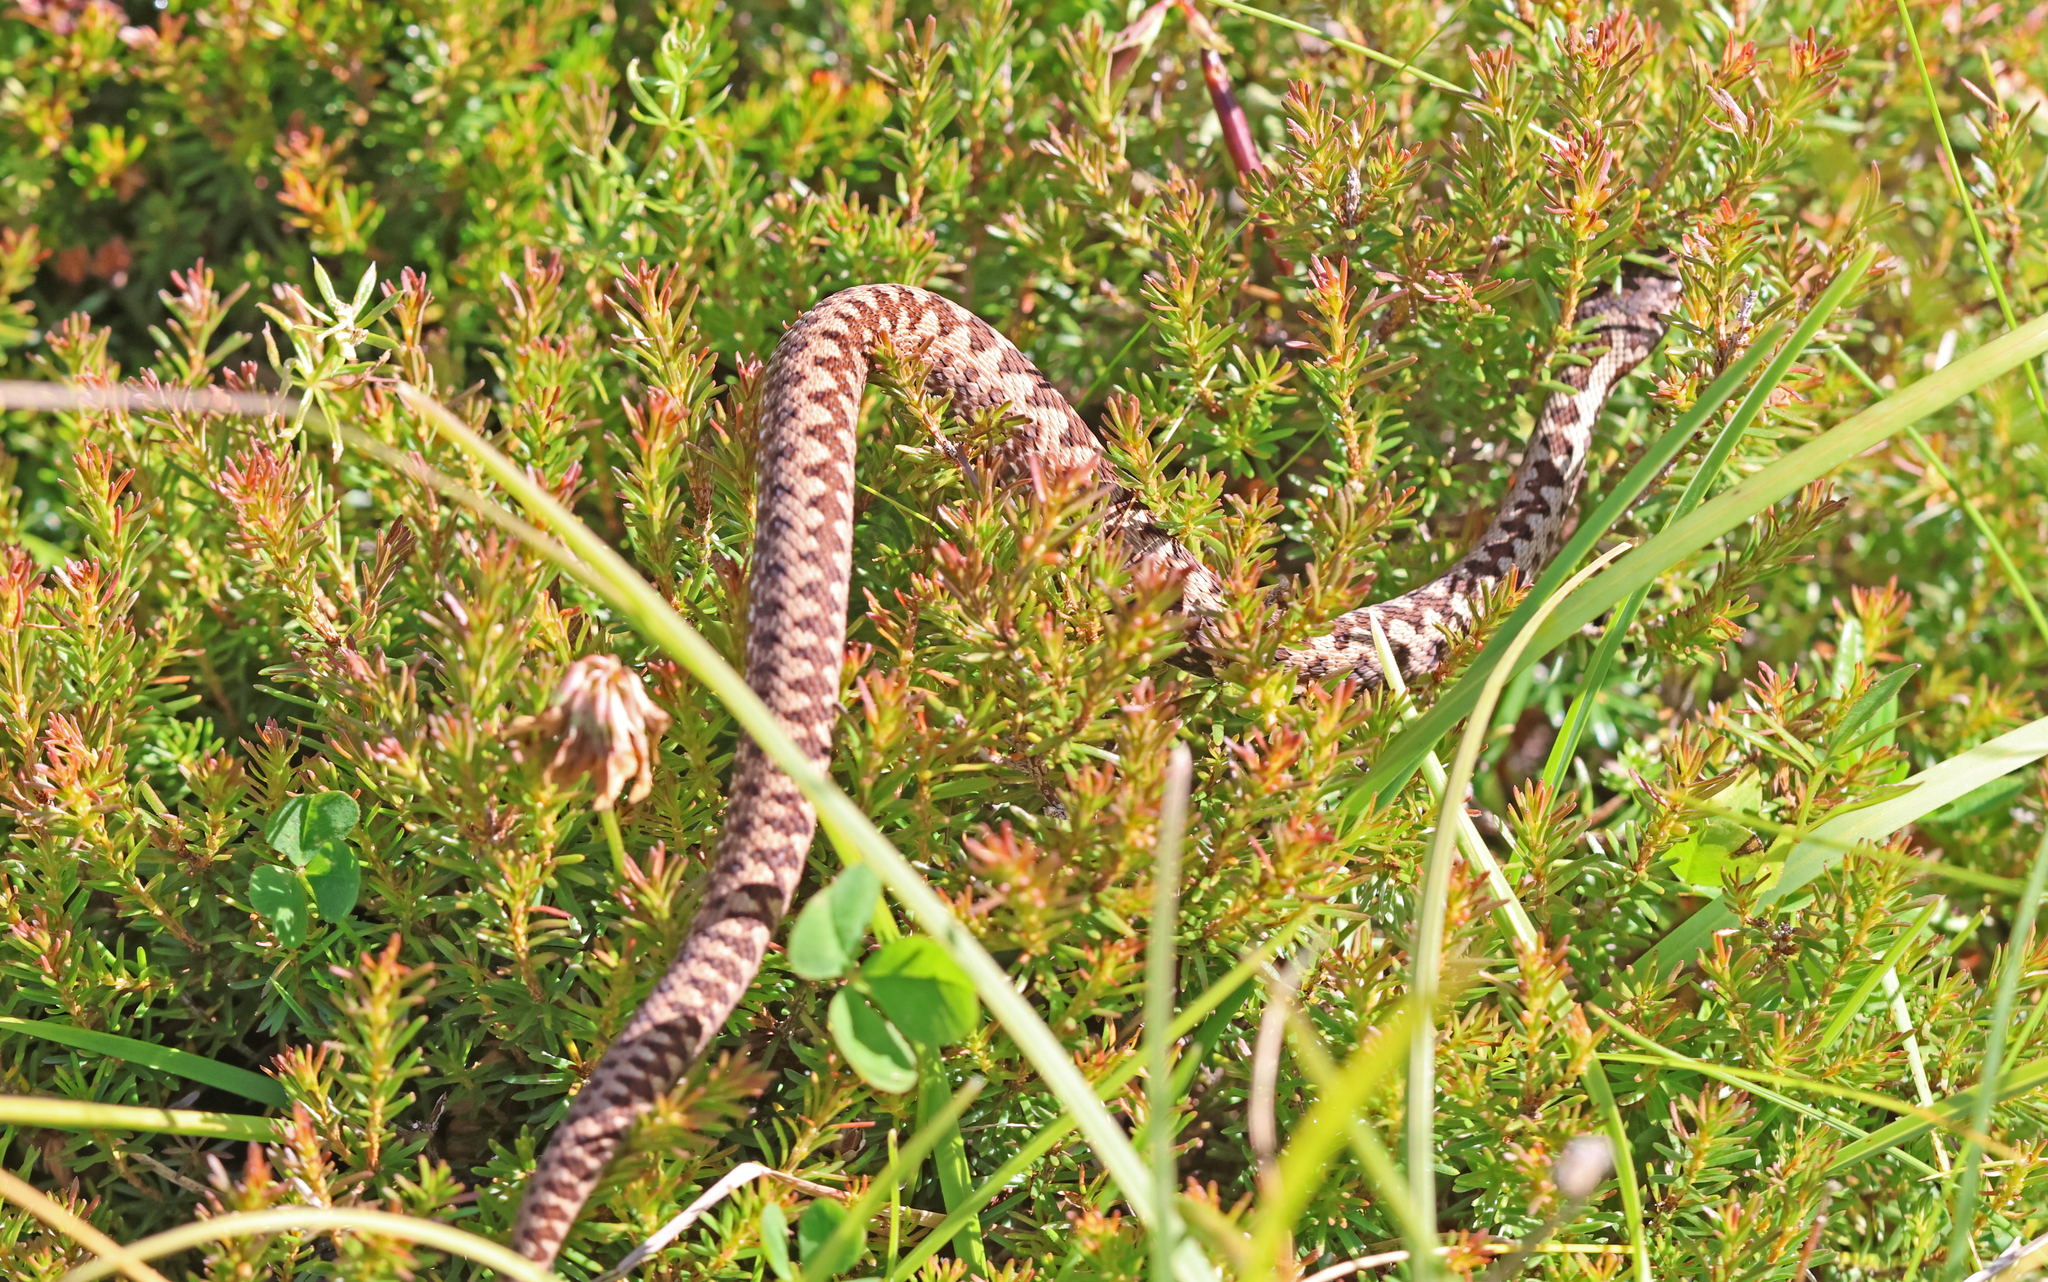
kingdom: Animalia
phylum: Chordata
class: Squamata
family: Viperidae
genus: Vipera
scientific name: Vipera berus
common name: Adder
